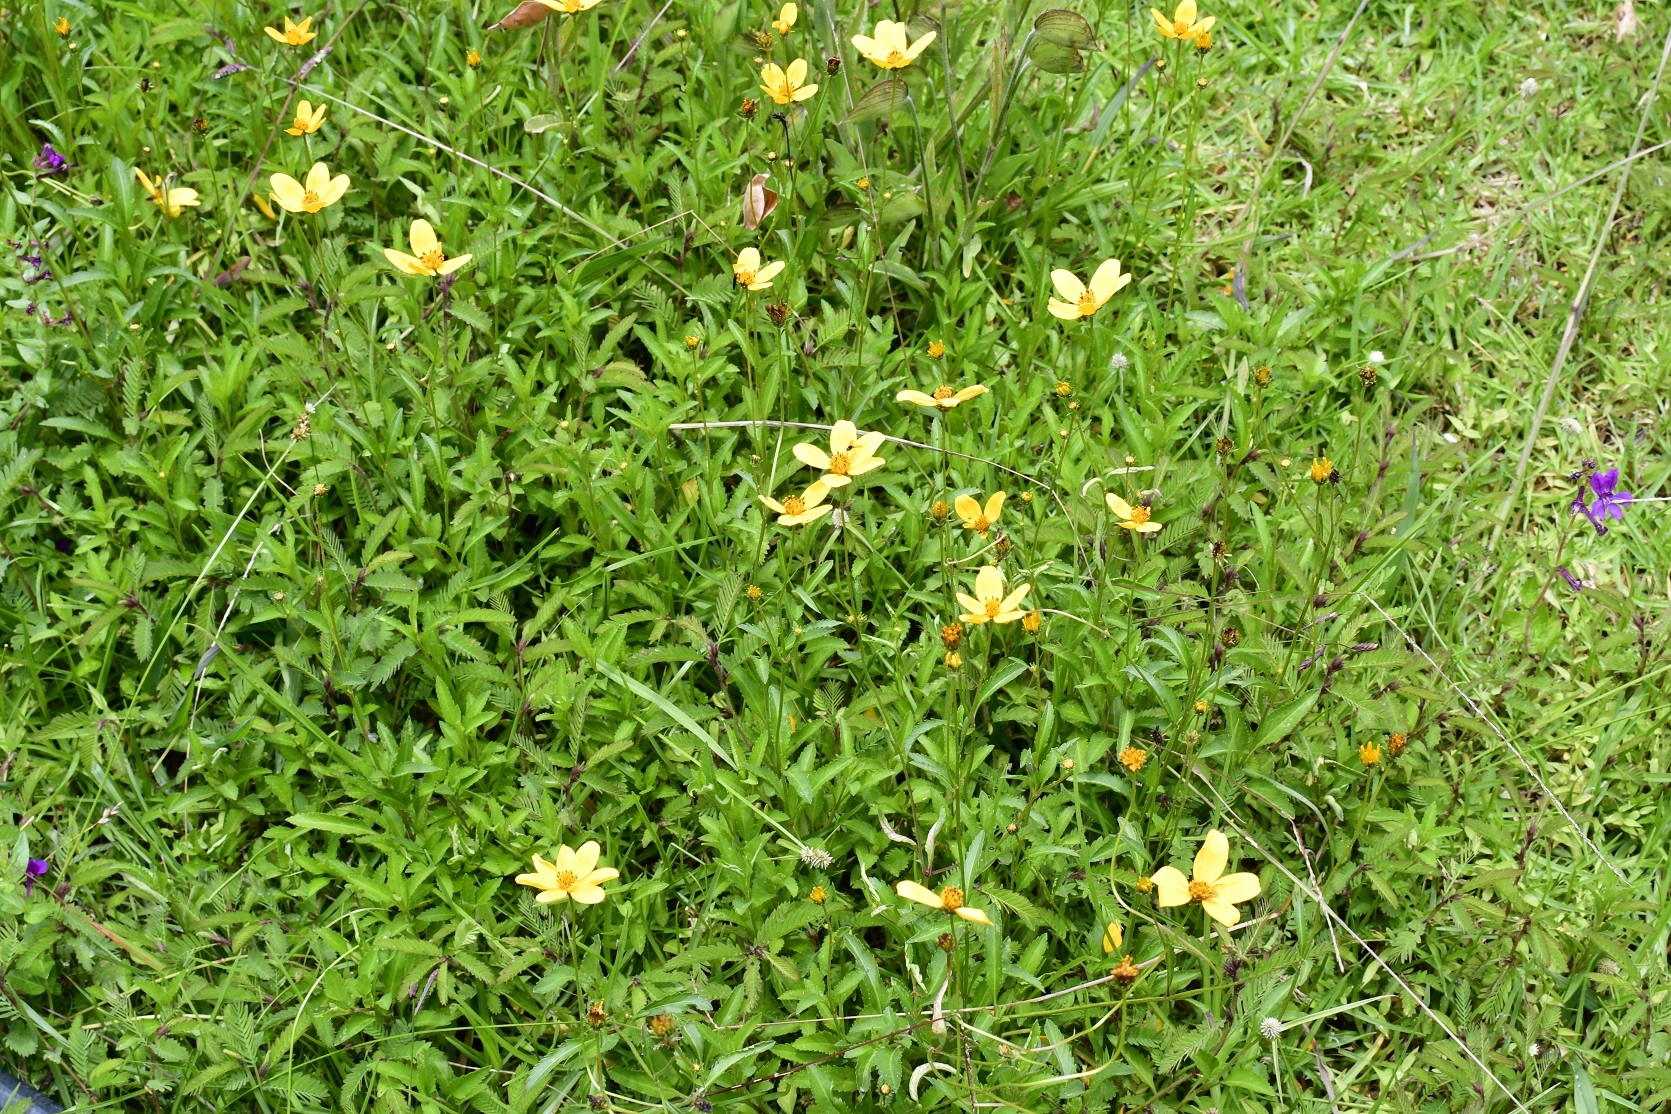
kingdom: Plantae
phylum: Tracheophyta
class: Magnoliopsida
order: Asterales
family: Asteraceae
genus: Bidens
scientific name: Bidens aurea
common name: Arizona beggar-ticks
